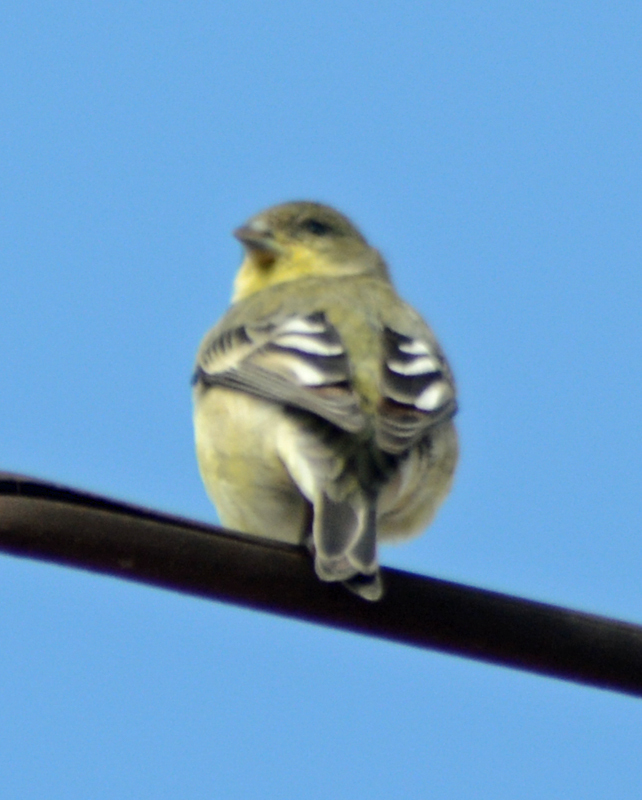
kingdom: Animalia
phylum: Chordata
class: Aves
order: Passeriformes
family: Fringillidae
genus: Spinus
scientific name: Spinus psaltria
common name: Lesser goldfinch
